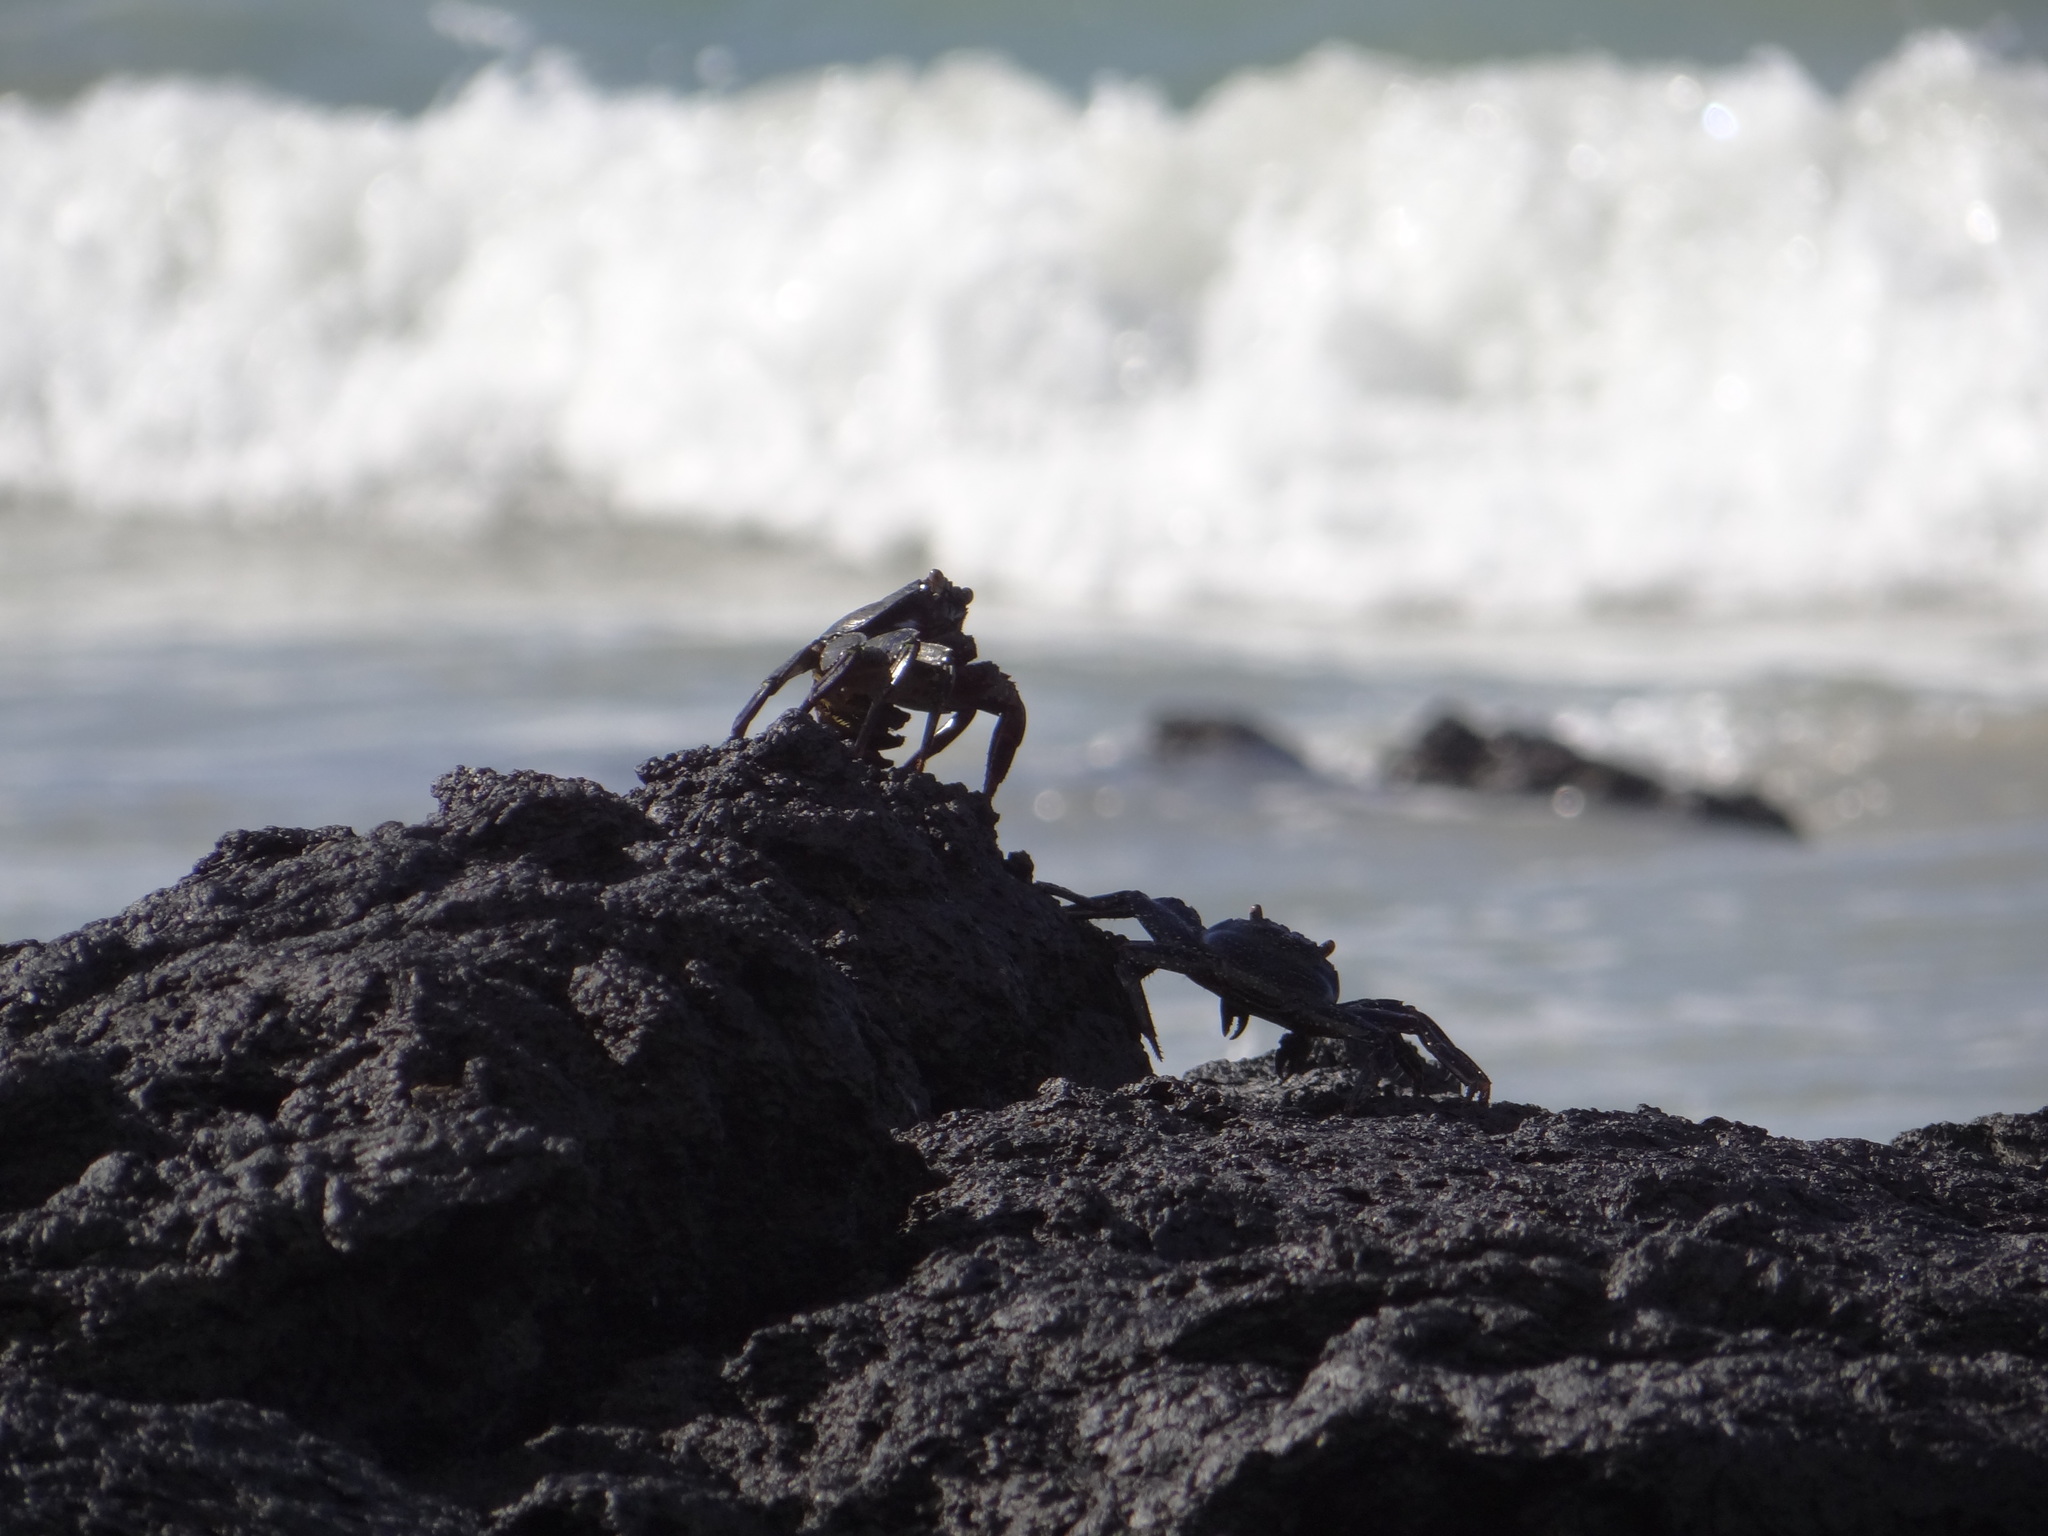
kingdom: Animalia
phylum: Arthropoda
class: Malacostraca
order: Decapoda
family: Grapsidae
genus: Grapsus
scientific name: Grapsus grapsus
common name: Sally lightfoot
